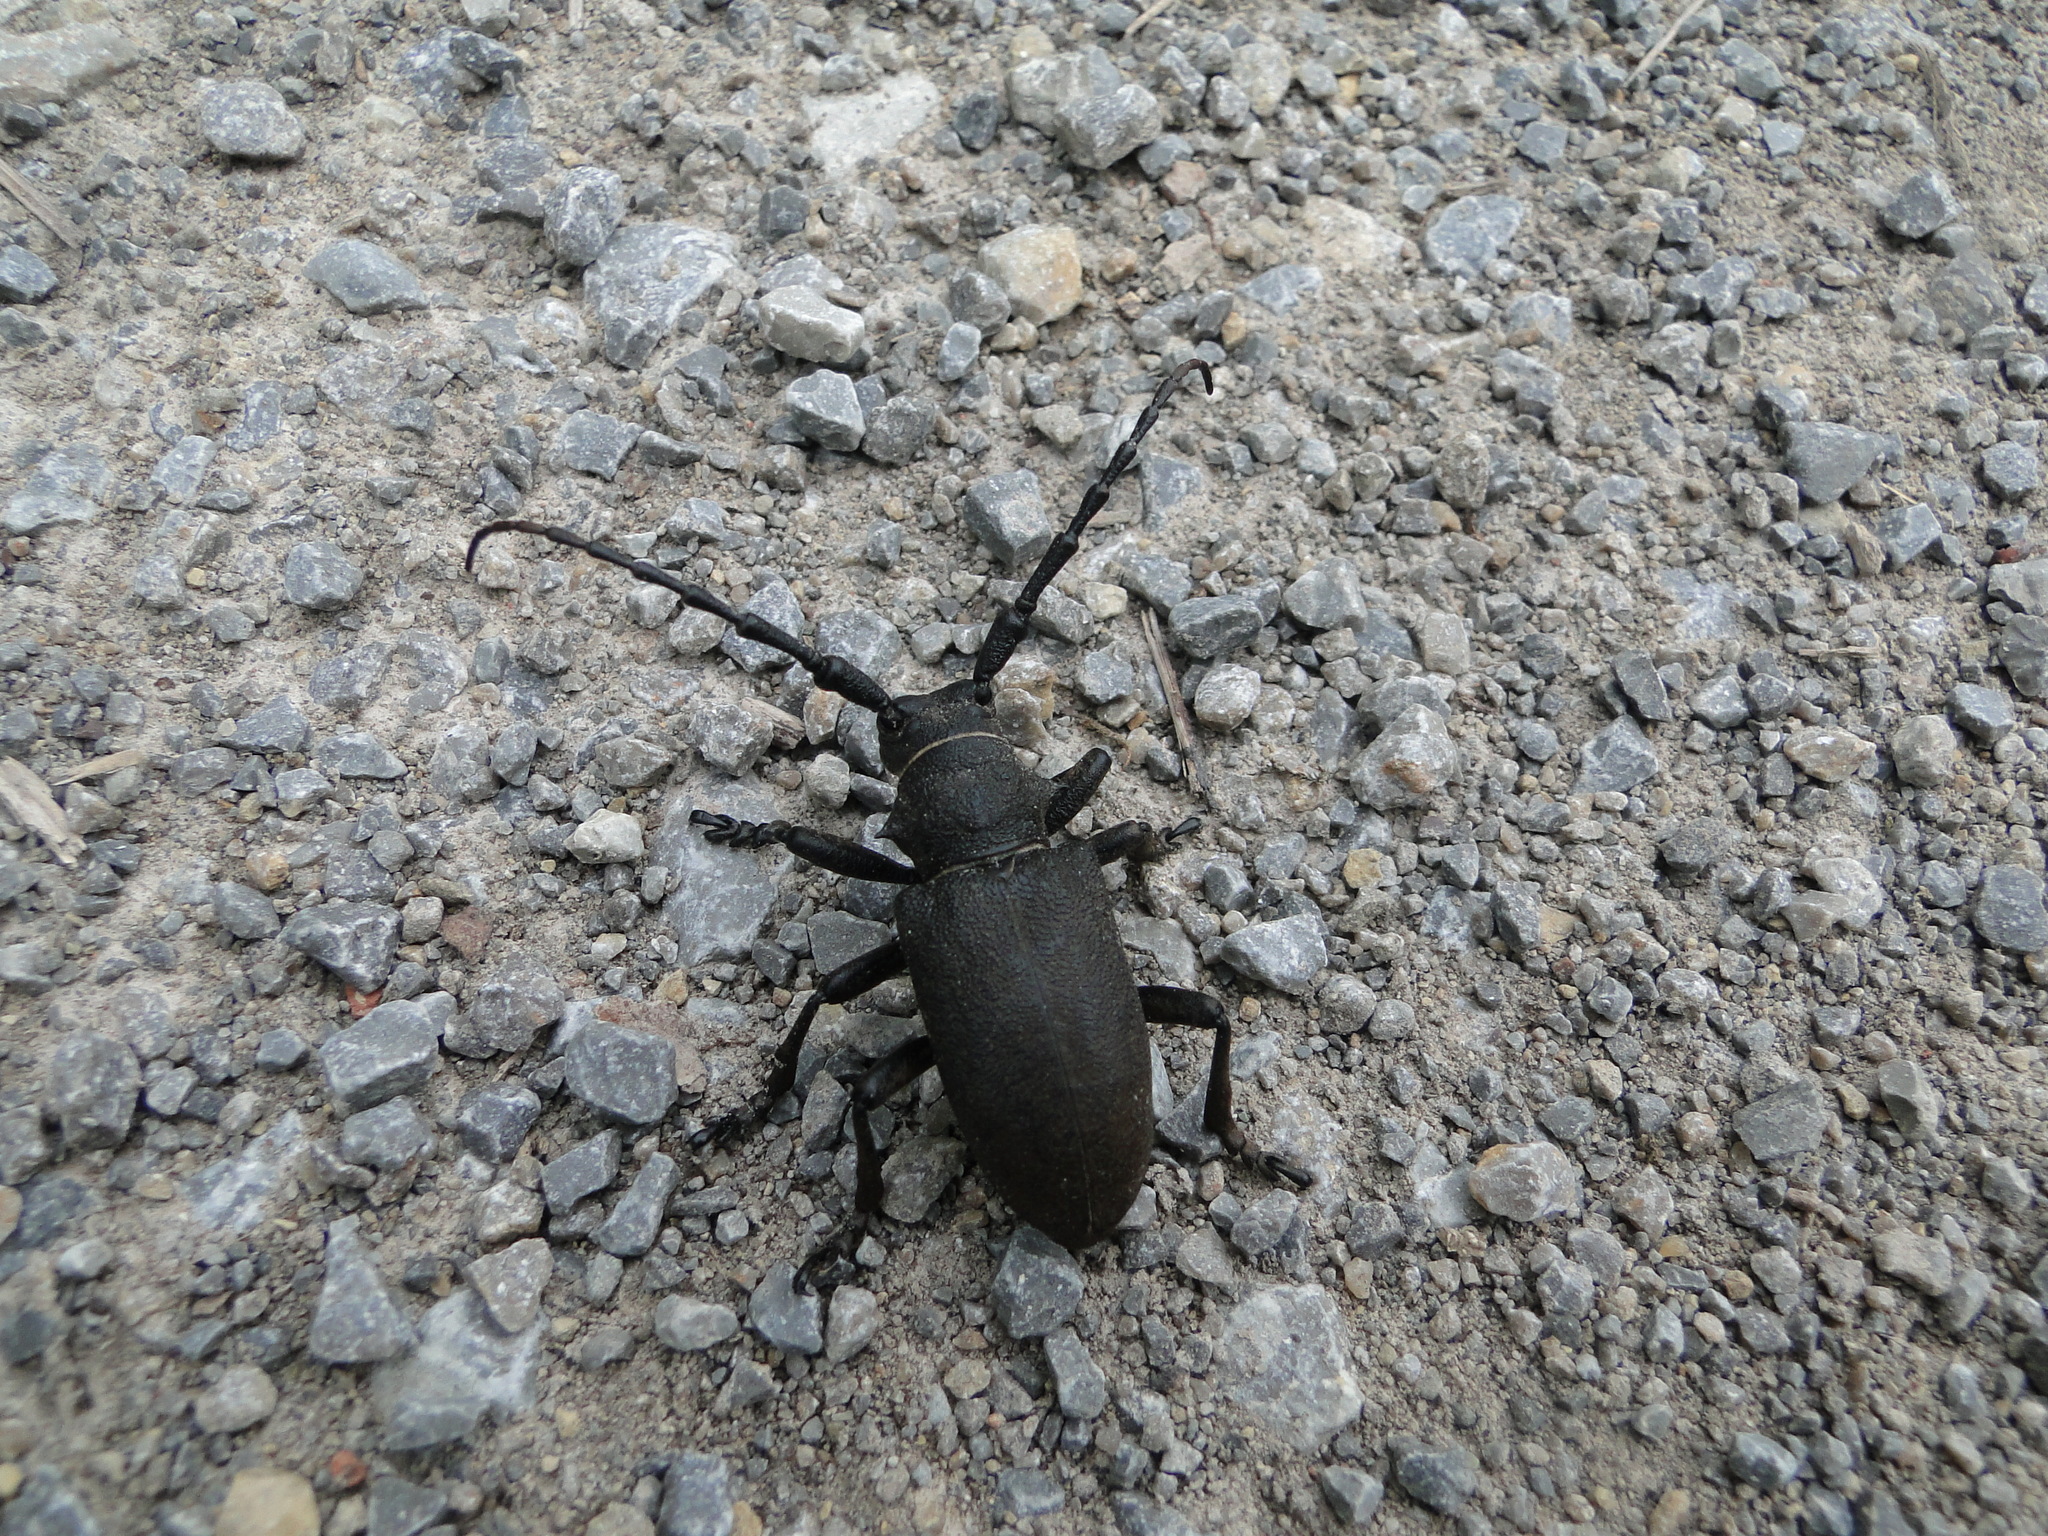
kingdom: Animalia
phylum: Arthropoda
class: Insecta
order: Coleoptera
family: Cerambycidae
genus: Lamia
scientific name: Lamia textor
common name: Weaver beetle
